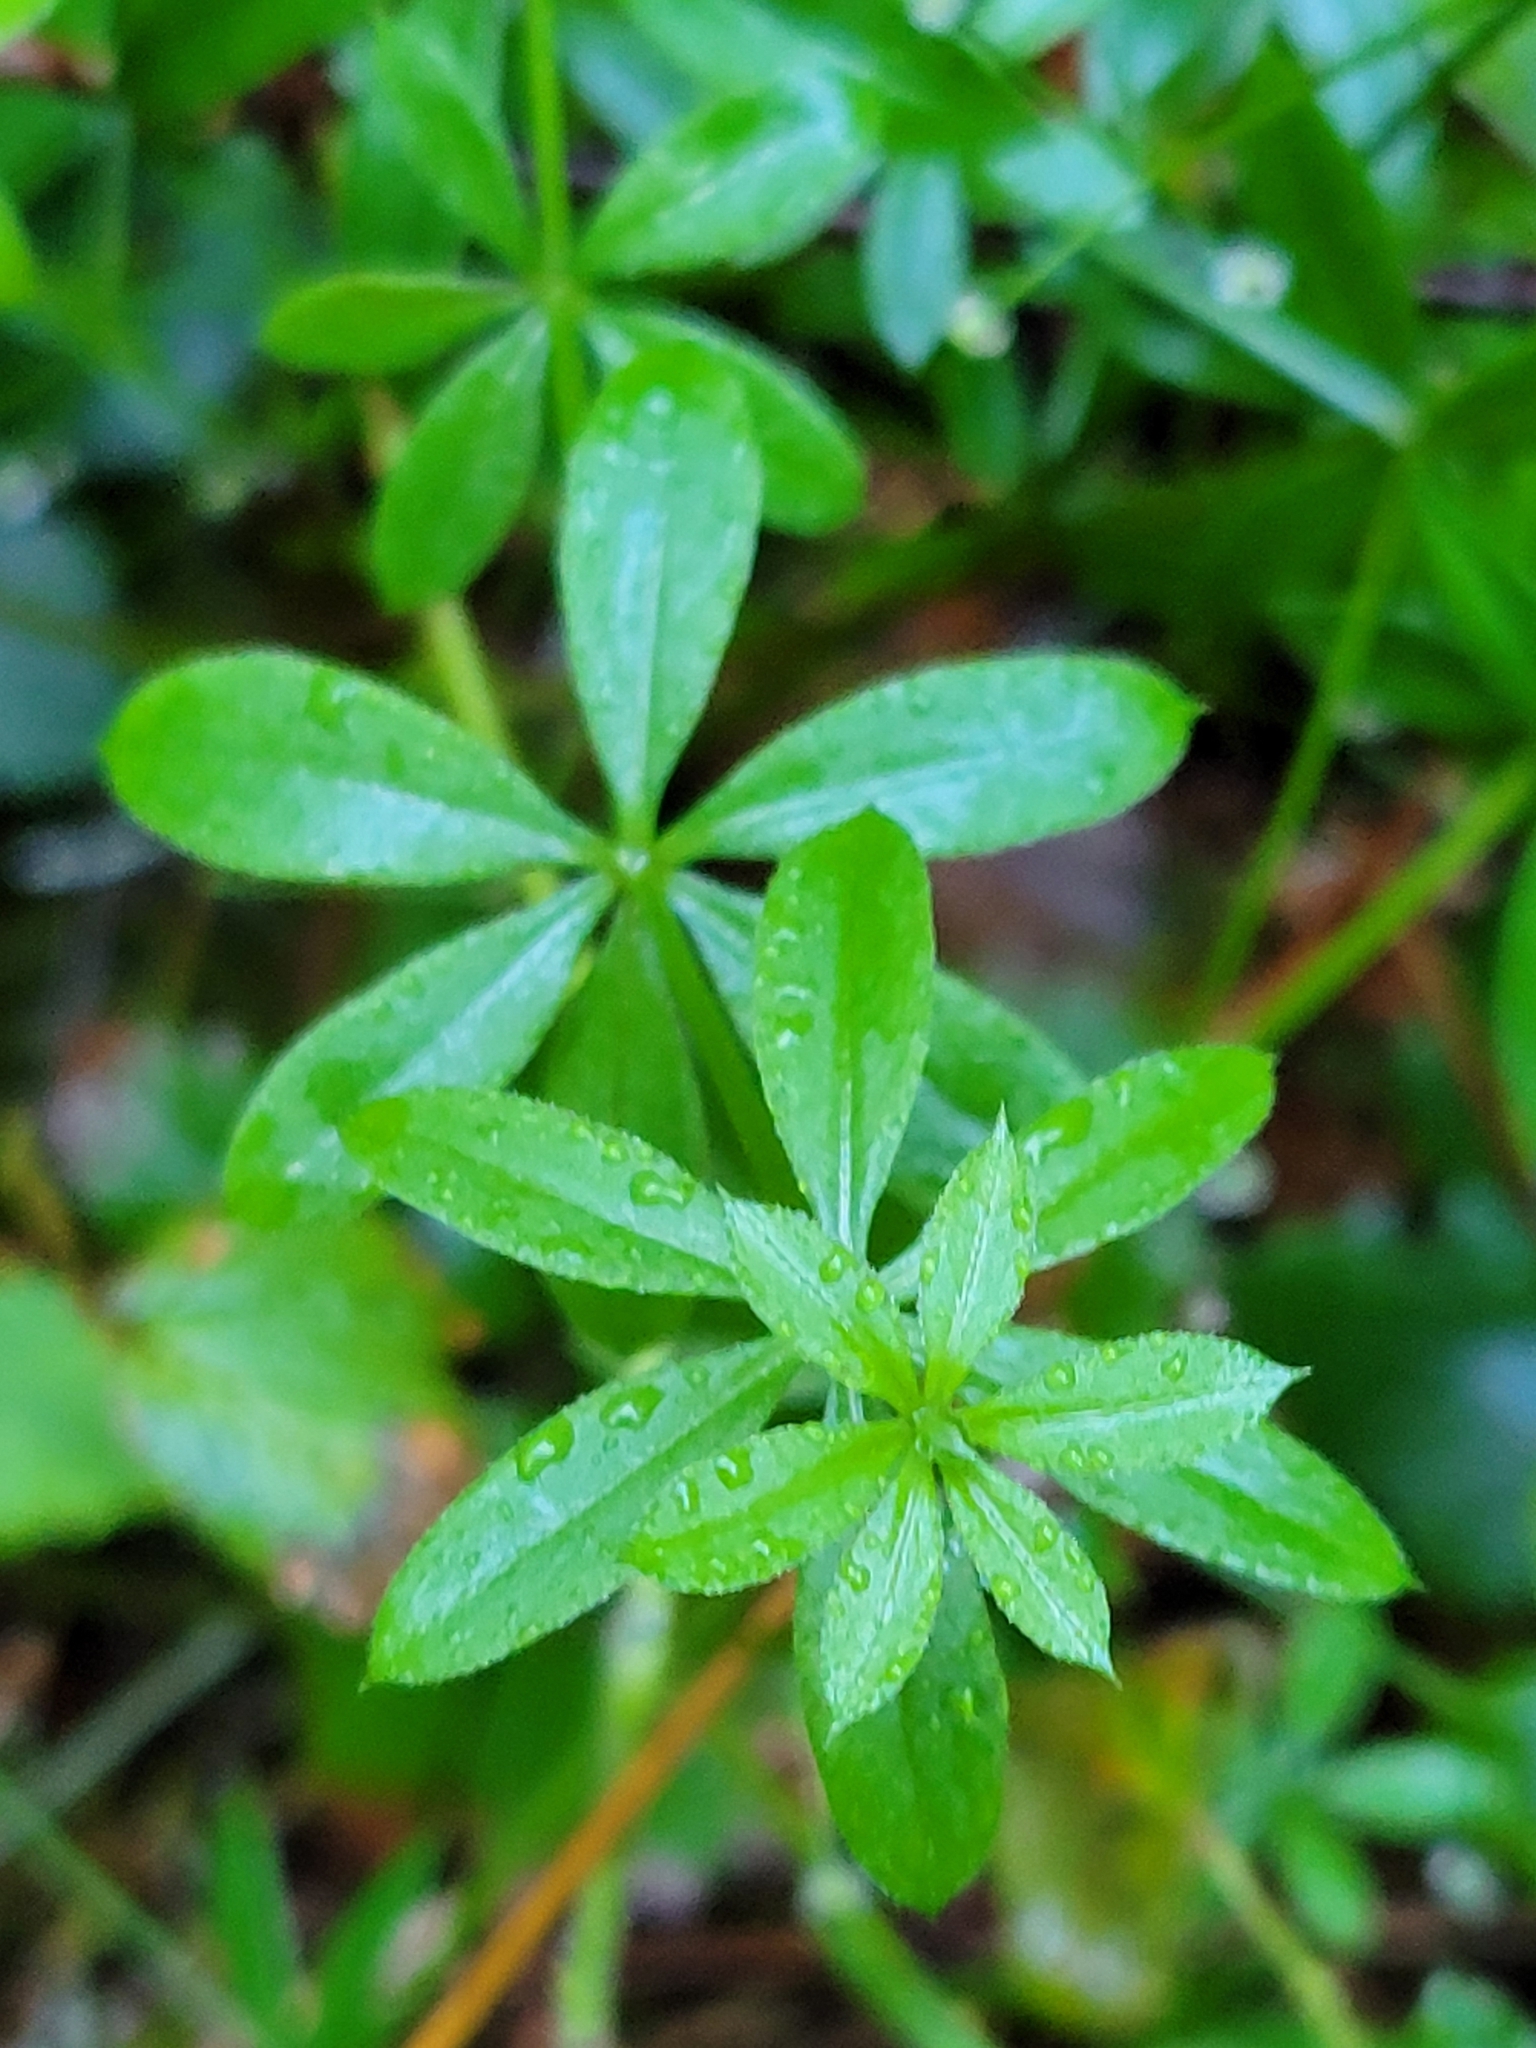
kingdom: Plantae
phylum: Tracheophyta
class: Magnoliopsida
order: Gentianales
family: Rubiaceae
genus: Galium
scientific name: Galium triflorum
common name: Fragrant bedstraw
